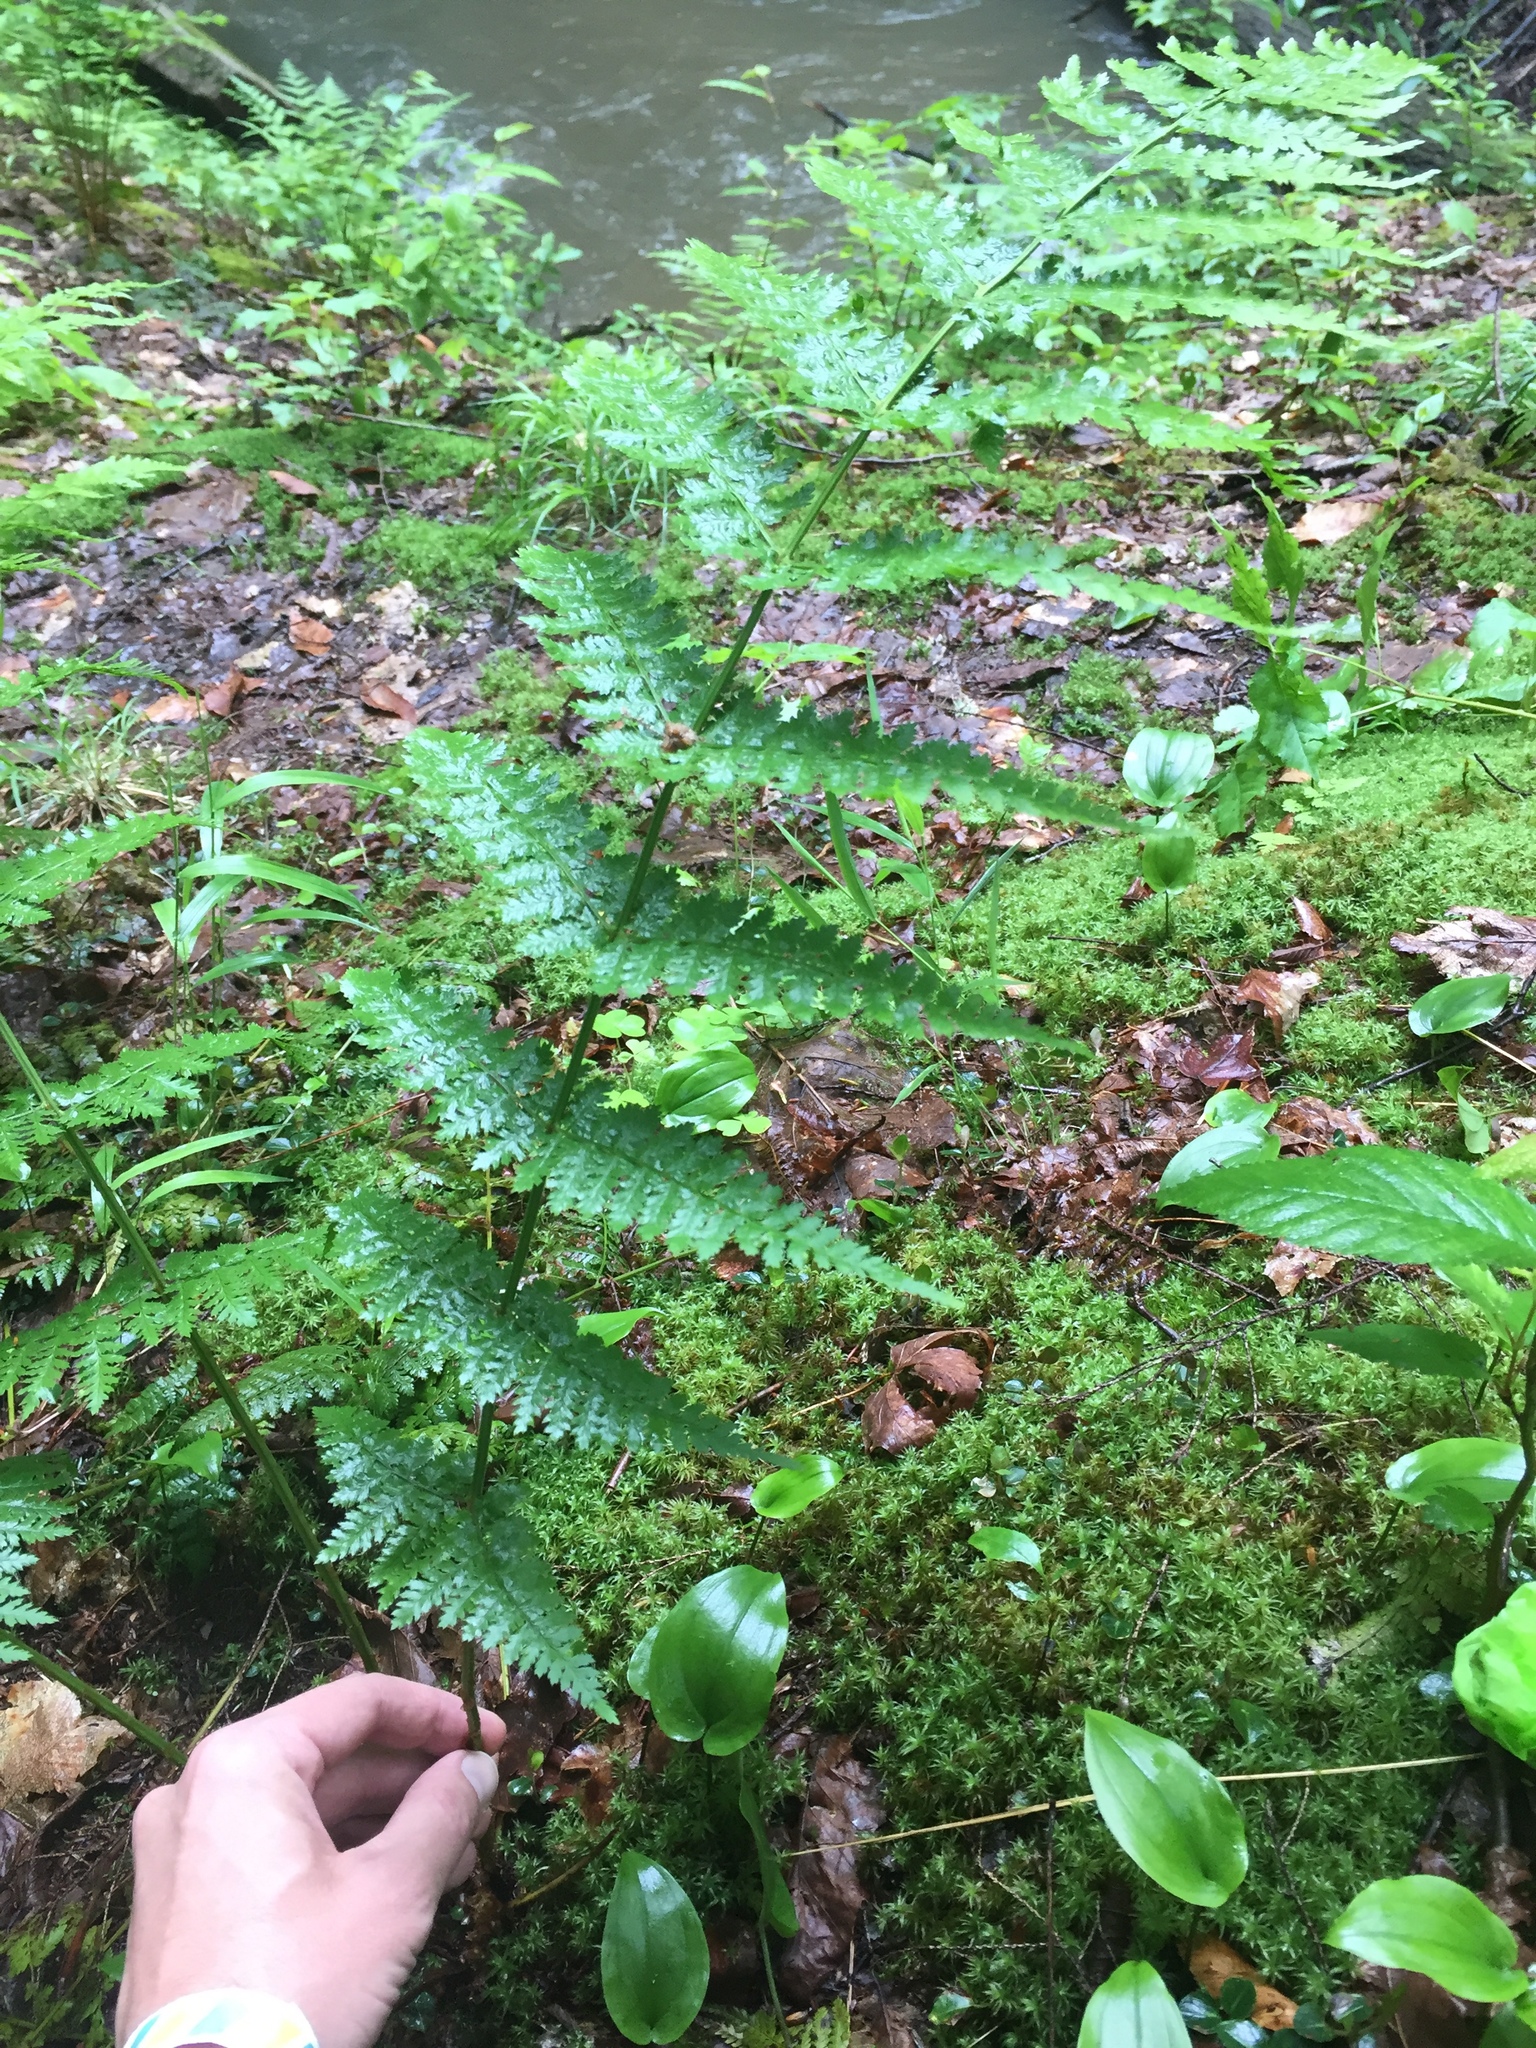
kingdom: Plantae
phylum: Tracheophyta
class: Polypodiopsida
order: Polypodiales
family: Dryopteridaceae
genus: Dryopteris
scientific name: Dryopteris intermedia
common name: Evergreen wood fern
